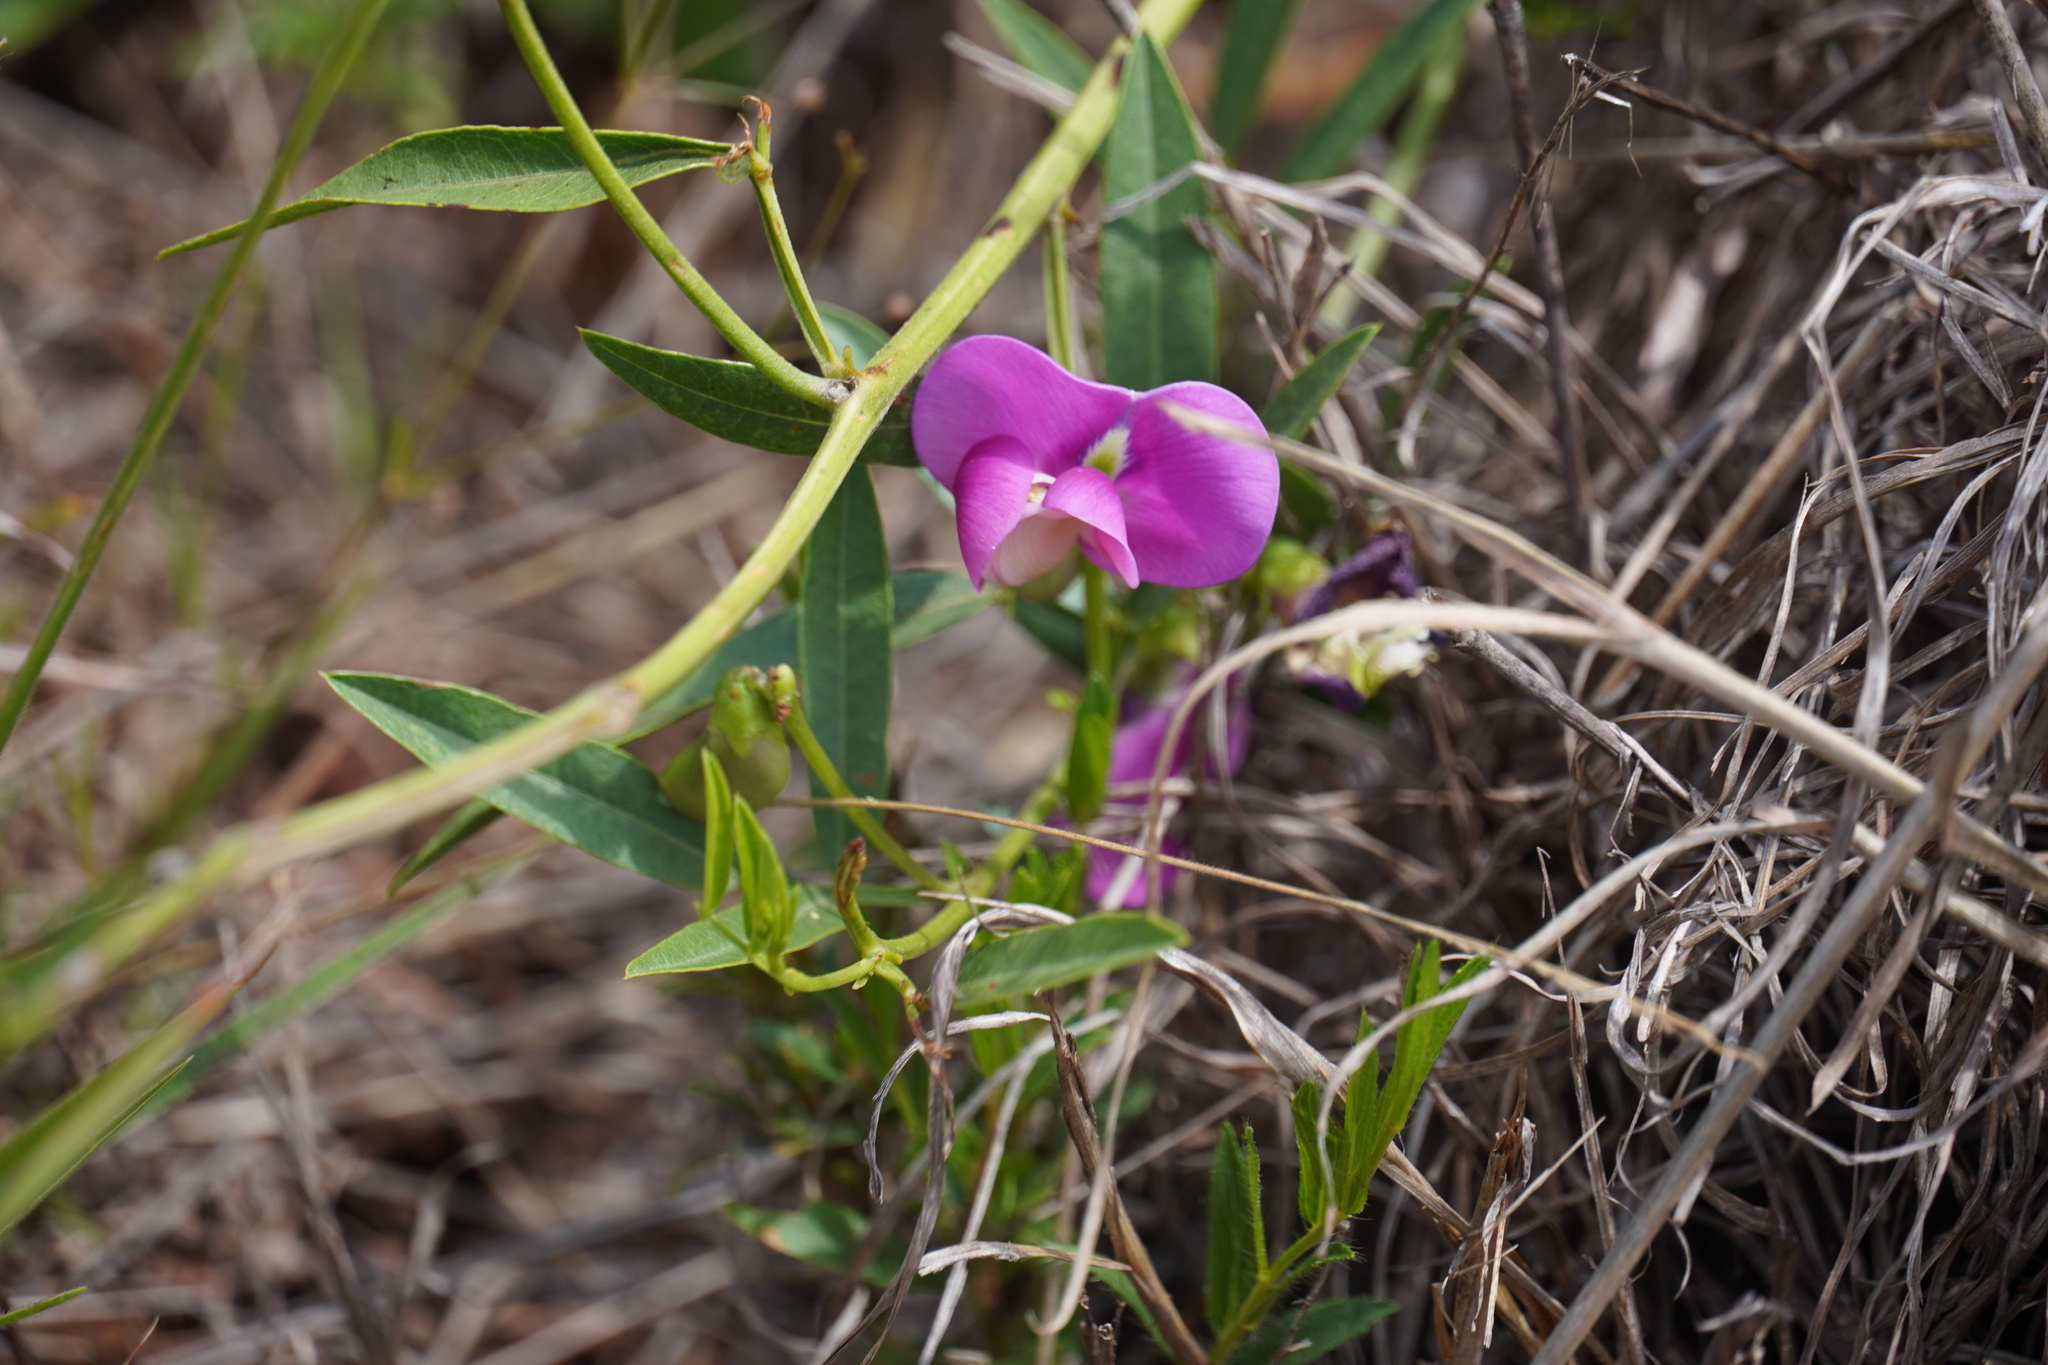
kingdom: Plantae
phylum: Tracheophyta
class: Magnoliopsida
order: Fabales
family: Fabaceae
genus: Sphenostylis
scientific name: Sphenostylis angustifolia
